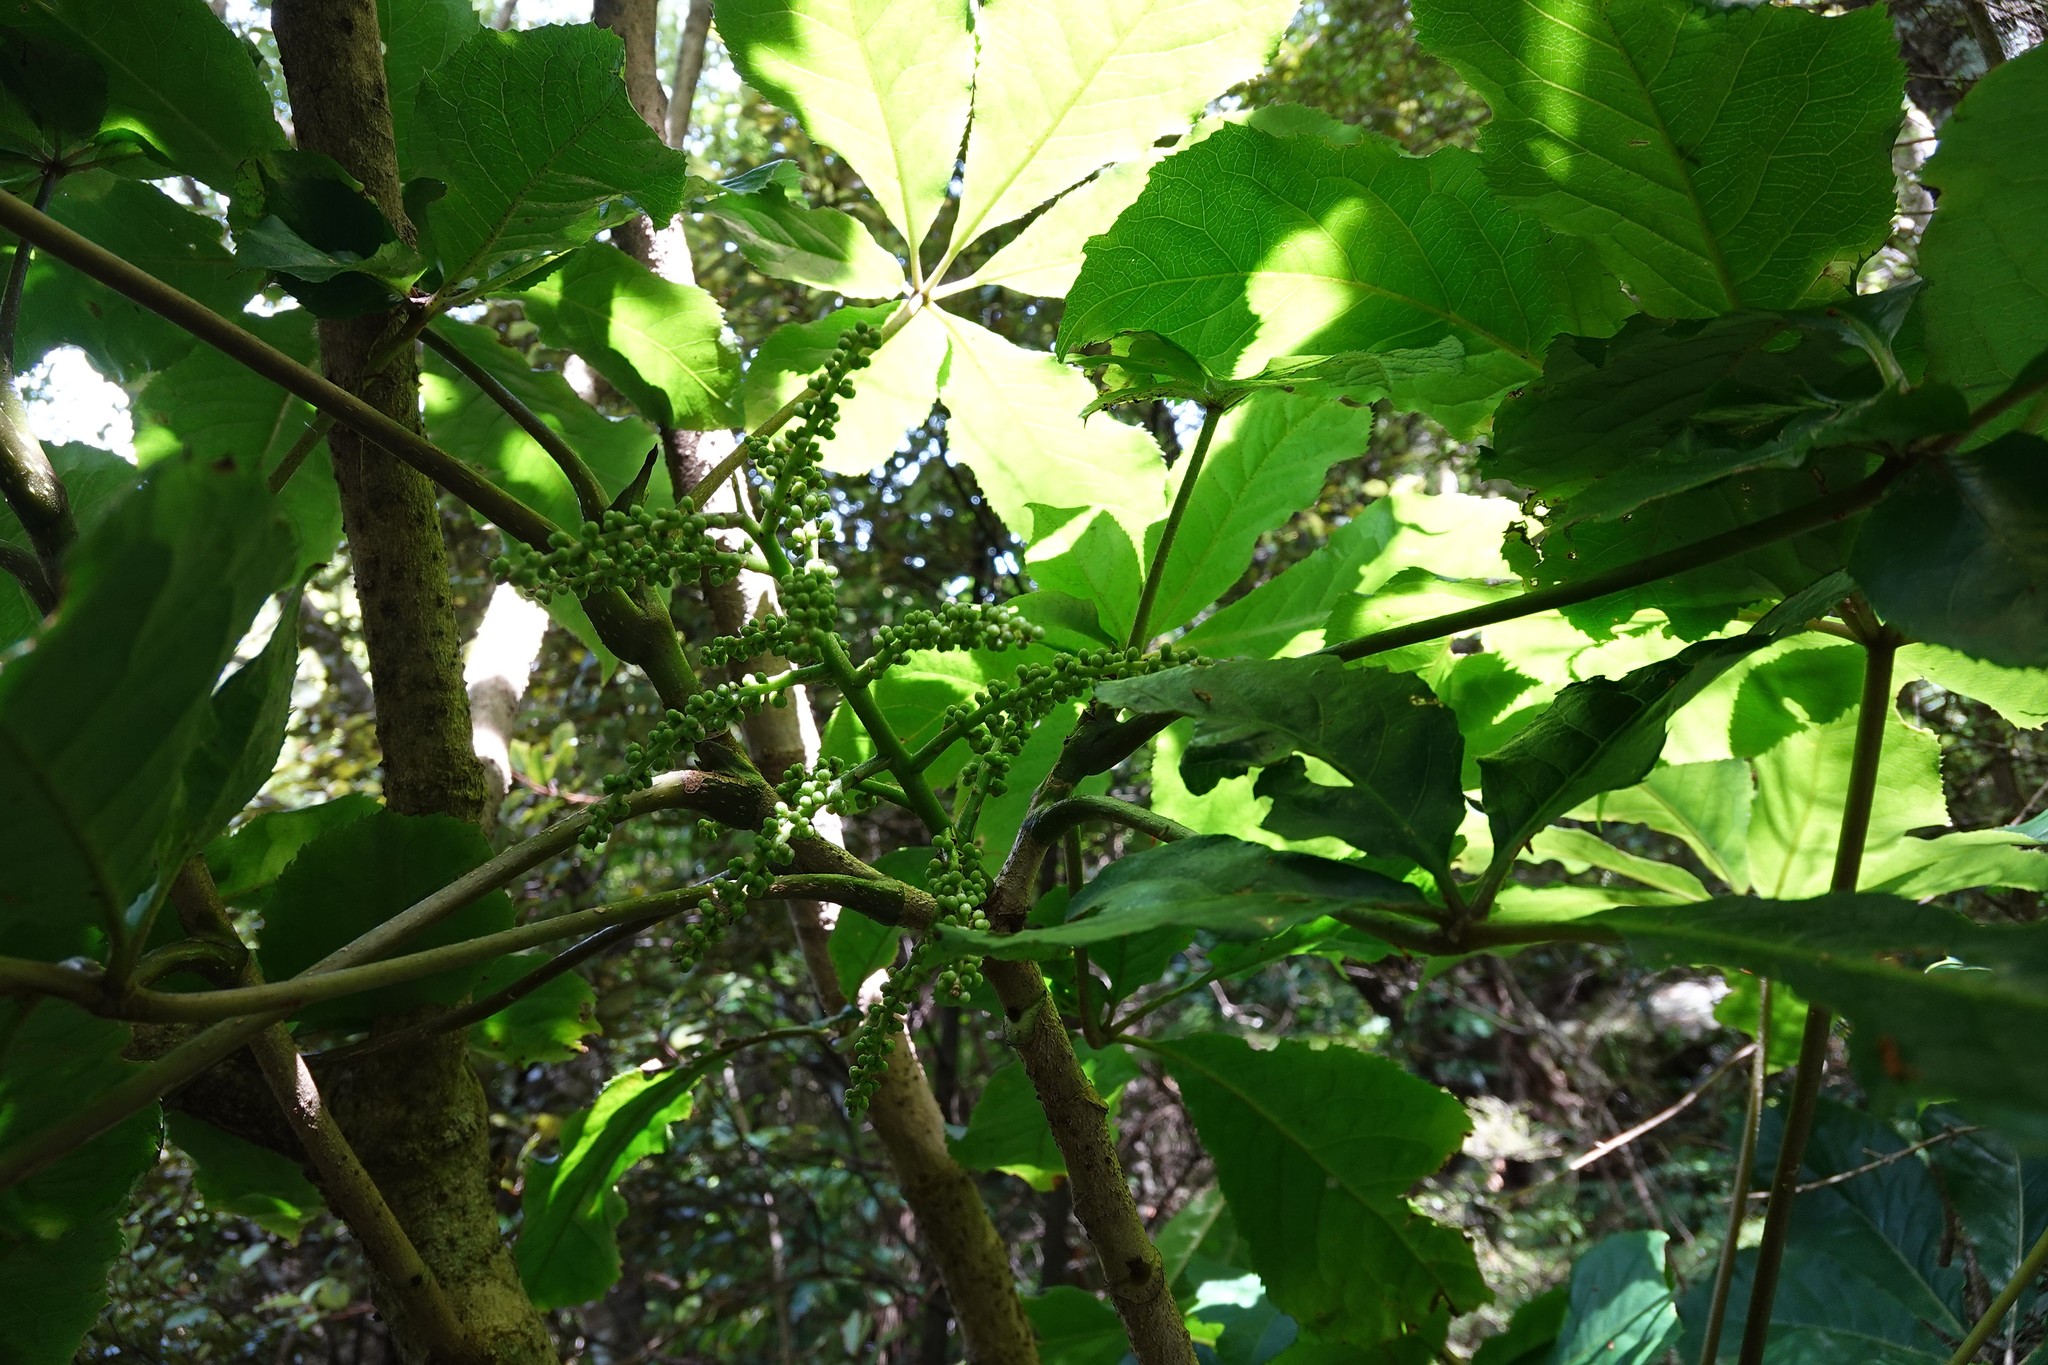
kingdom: Plantae
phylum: Tracheophyta
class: Magnoliopsida
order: Apiales
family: Araliaceae
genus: Schefflera
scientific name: Schefflera digitata
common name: Pate
